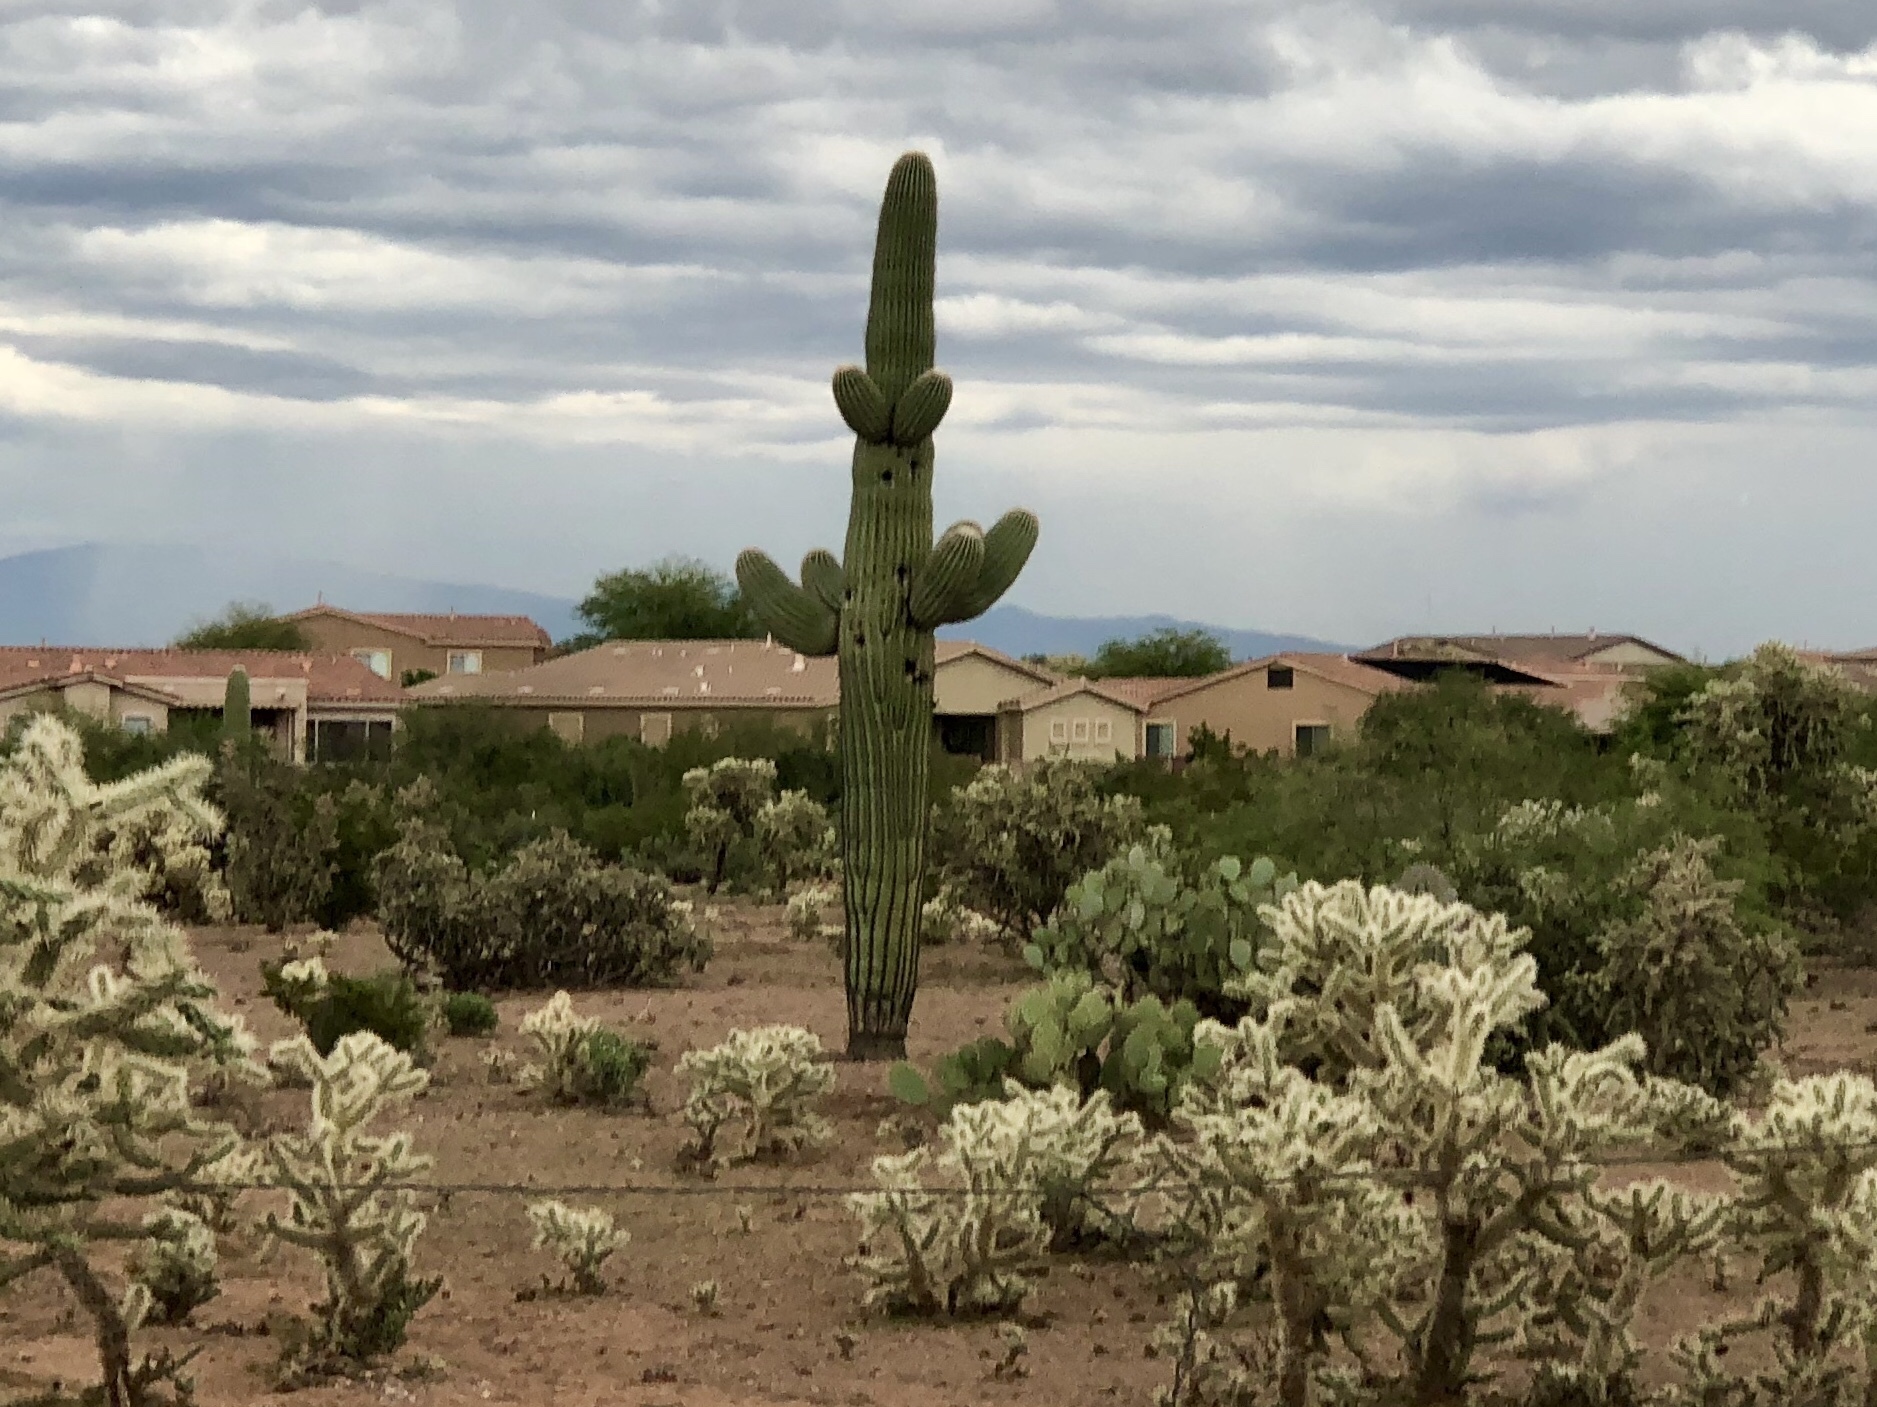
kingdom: Plantae
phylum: Tracheophyta
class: Magnoliopsida
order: Caryophyllales
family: Cactaceae
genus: Carnegiea
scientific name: Carnegiea gigantea
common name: Saguaro
